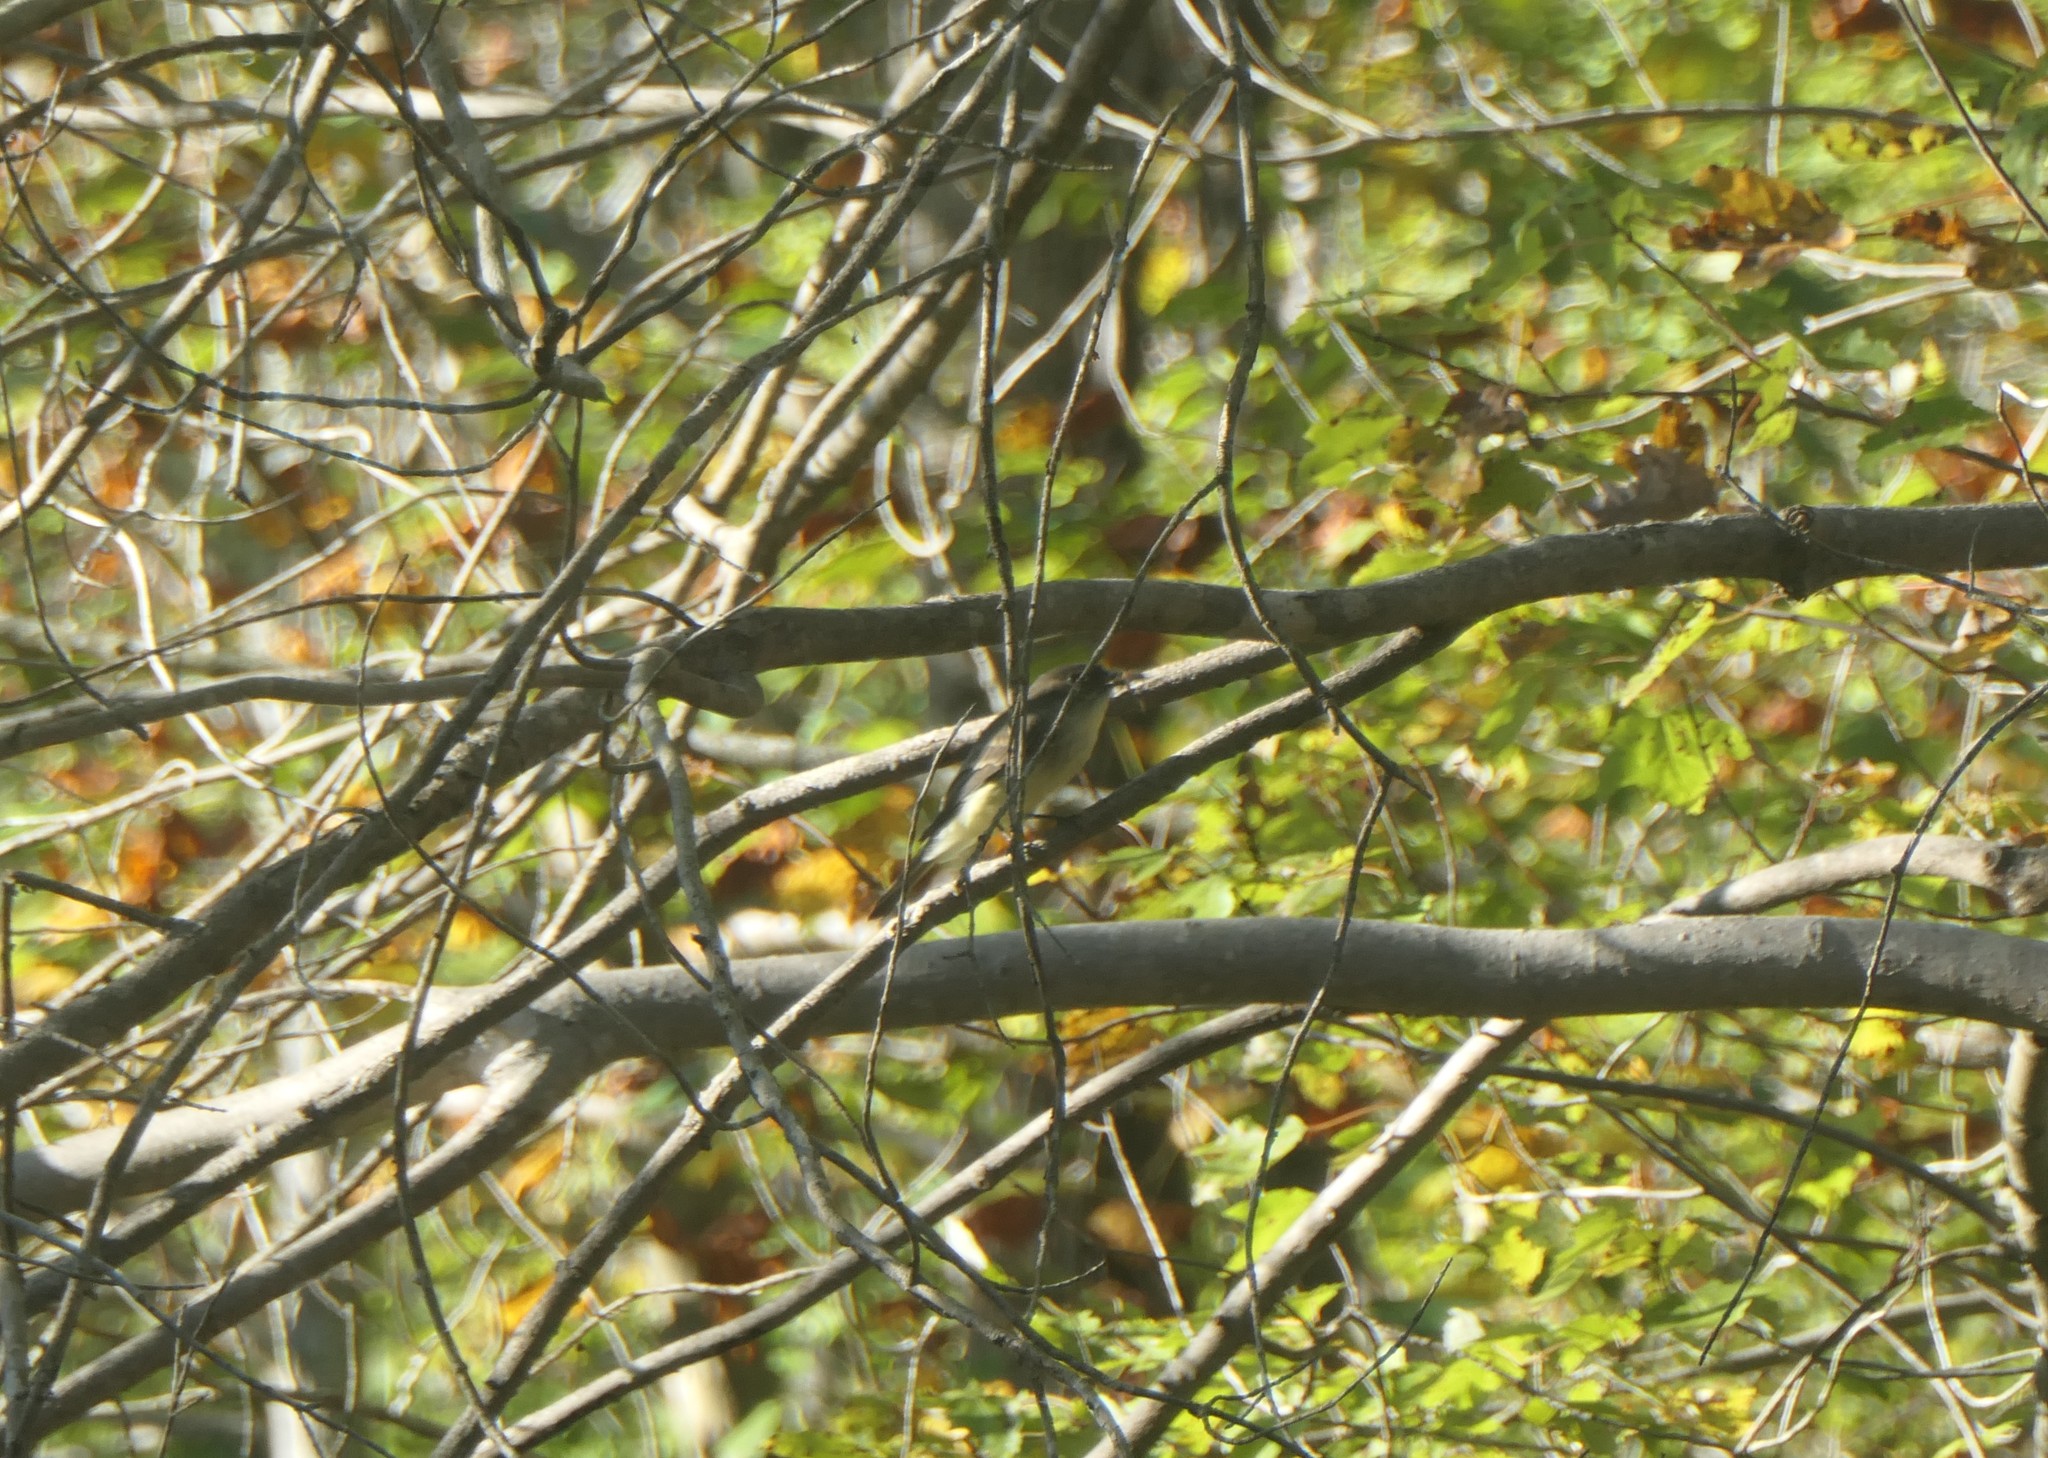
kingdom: Animalia
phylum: Chordata
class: Aves
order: Passeriformes
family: Tyrannidae
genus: Sayornis
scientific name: Sayornis phoebe
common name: Eastern phoebe
